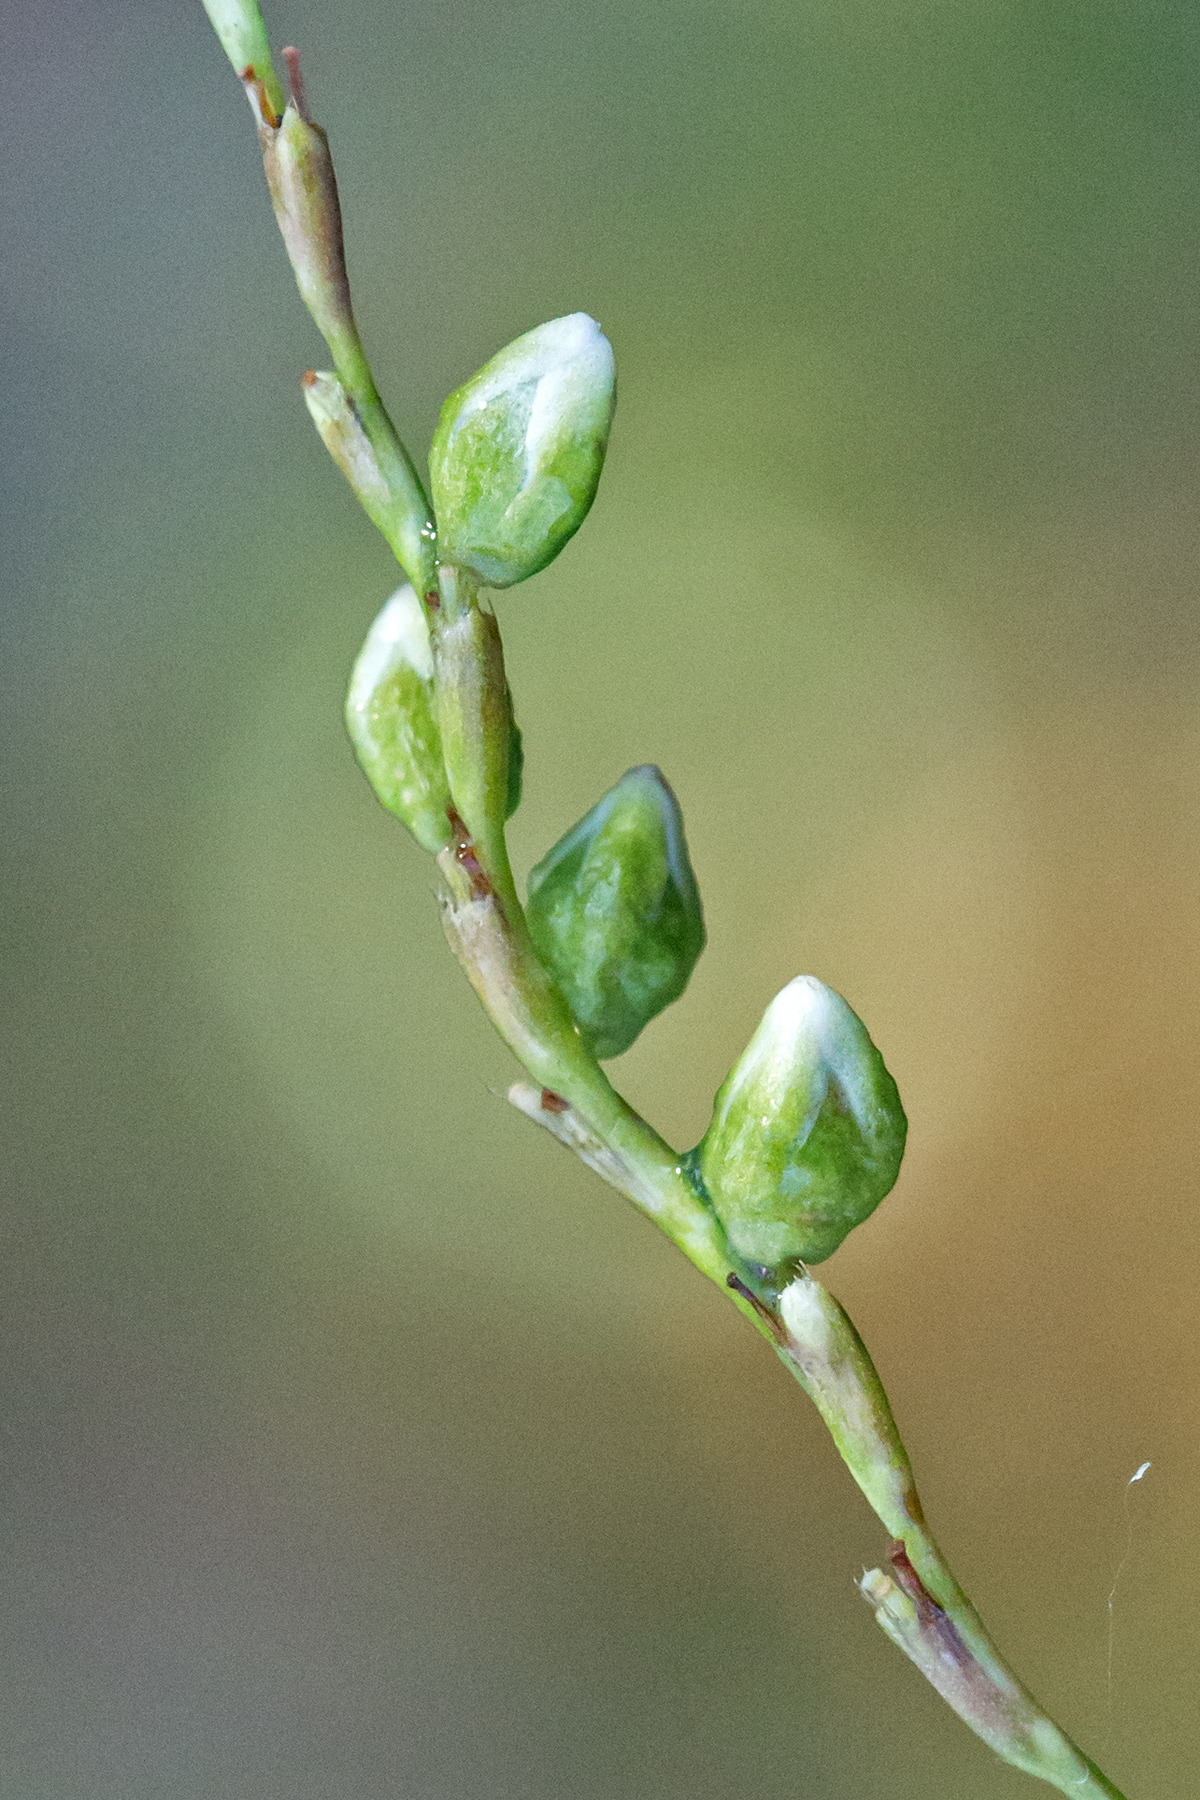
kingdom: Plantae
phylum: Tracheophyta
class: Magnoliopsida
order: Caryophyllales
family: Polygonaceae
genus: Persicaria
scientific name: Persicaria punctata
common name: Dotted smartweed
